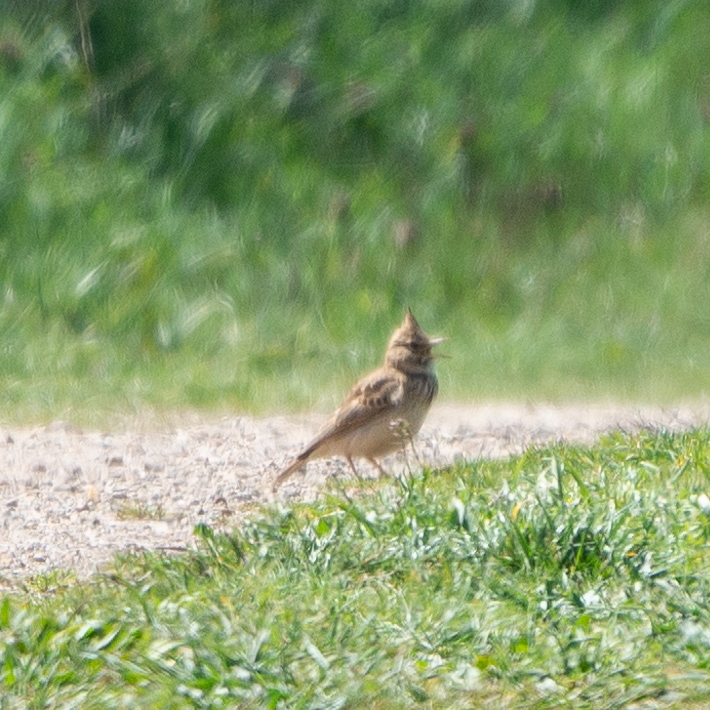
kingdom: Animalia
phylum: Chordata
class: Aves
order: Passeriformes
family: Alaudidae
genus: Galerida
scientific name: Galerida cristata
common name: Crested lark
